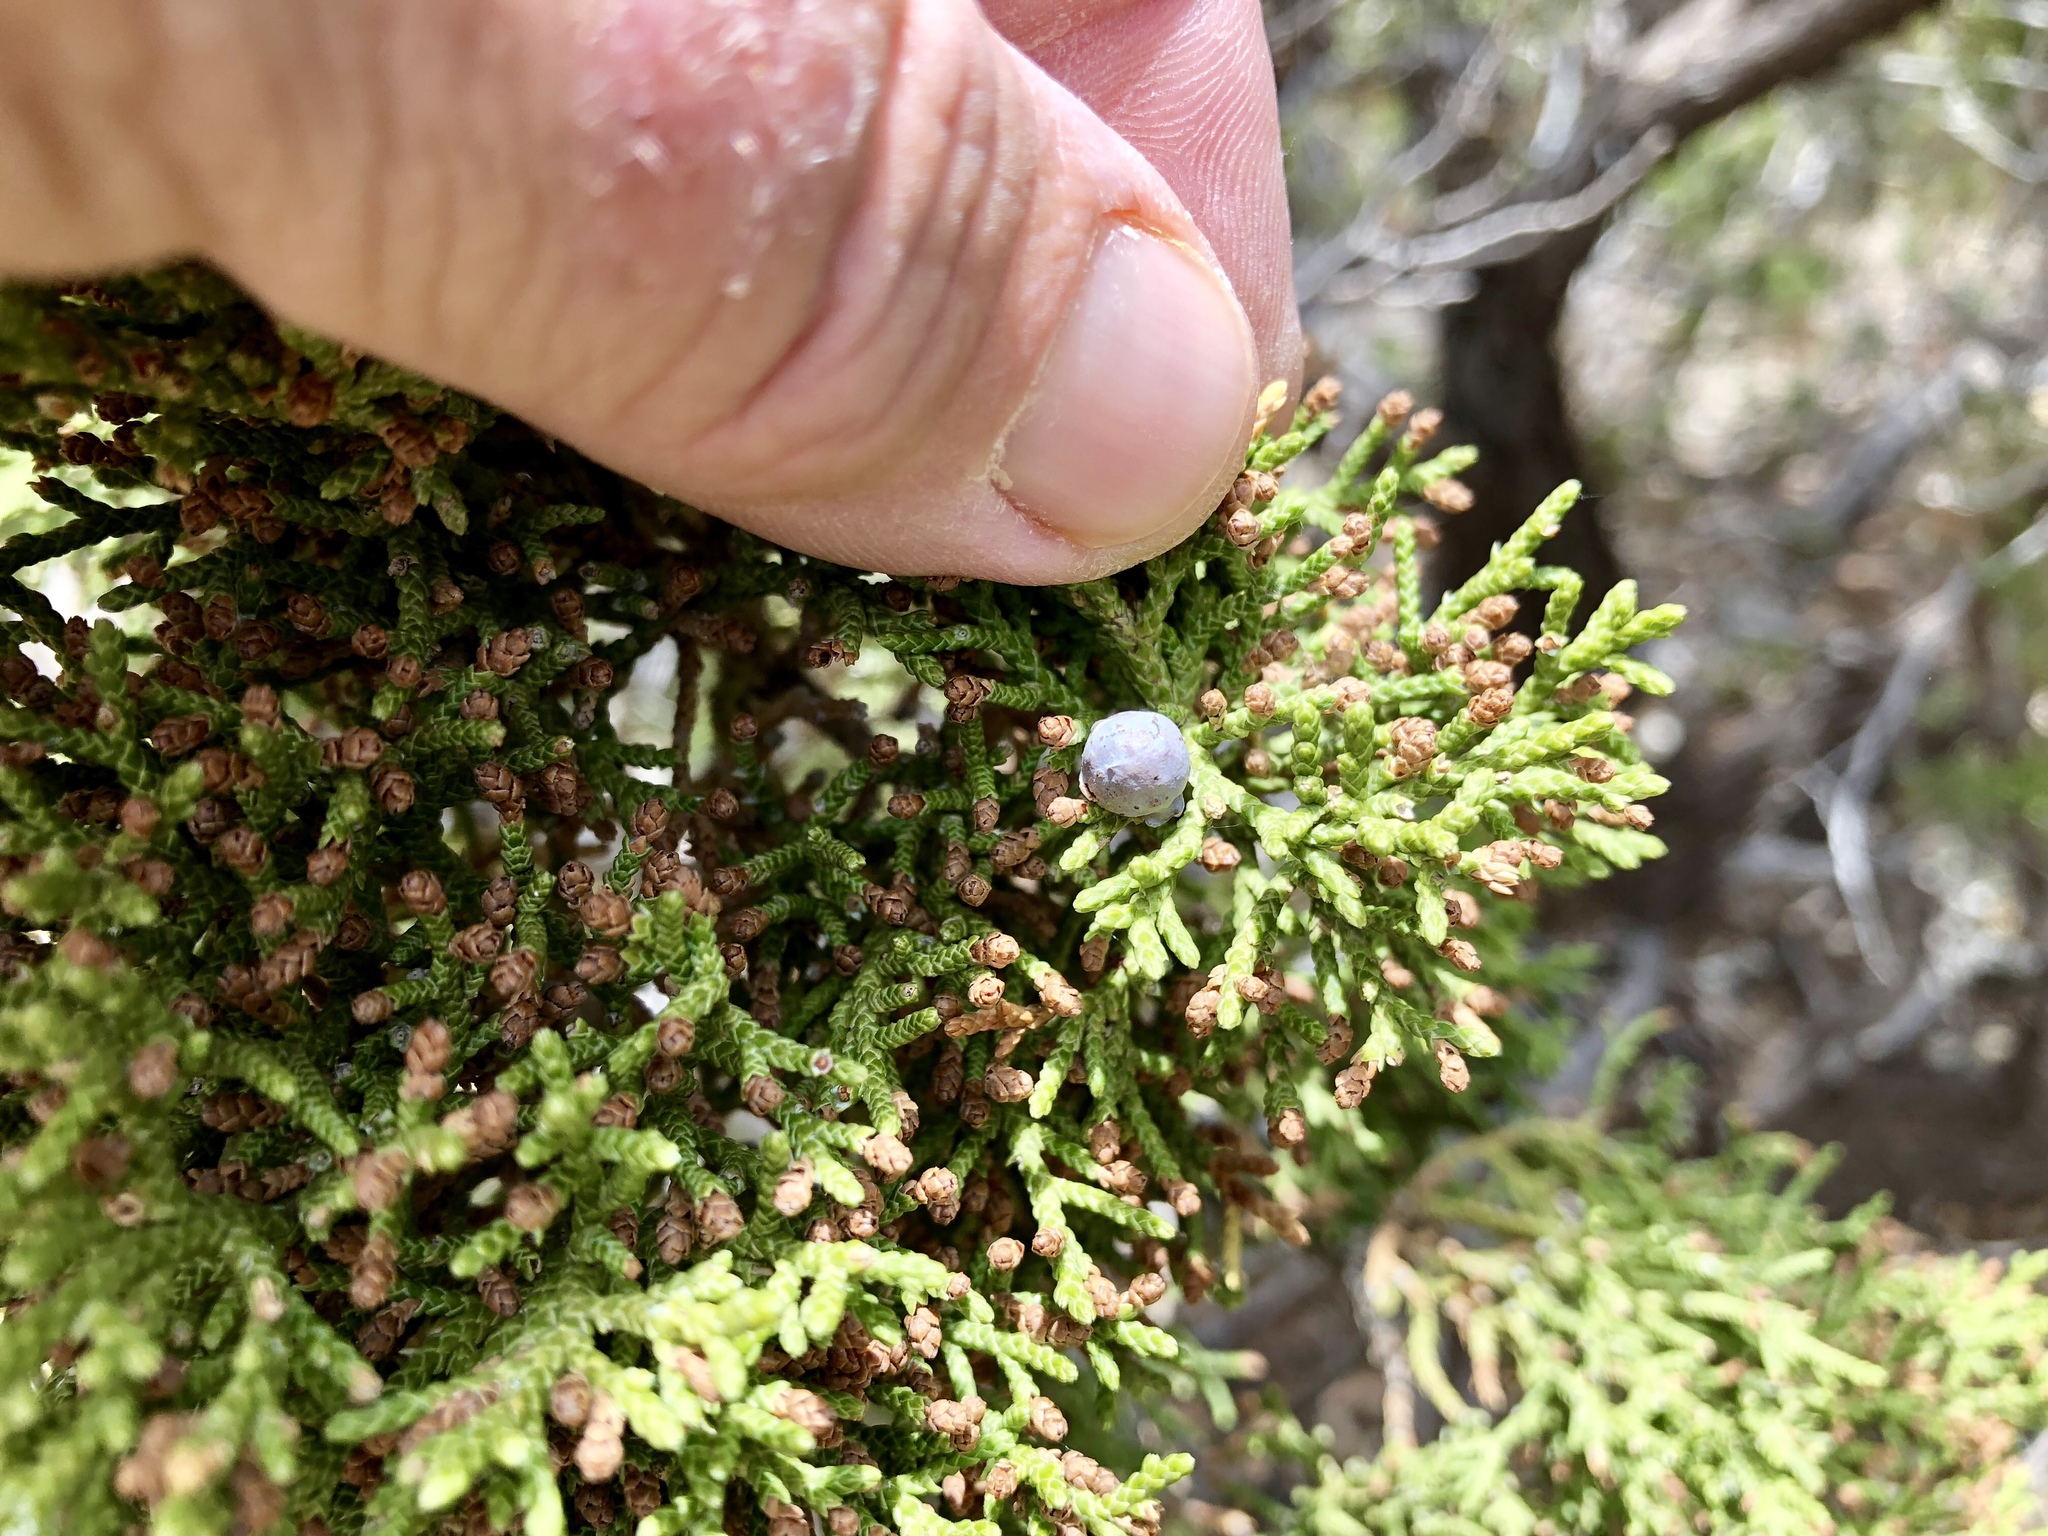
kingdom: Plantae
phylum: Tracheophyta
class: Pinopsida
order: Pinales
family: Cupressaceae
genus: Juniperus
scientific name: Juniperus monosperma
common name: One-seed juniper
